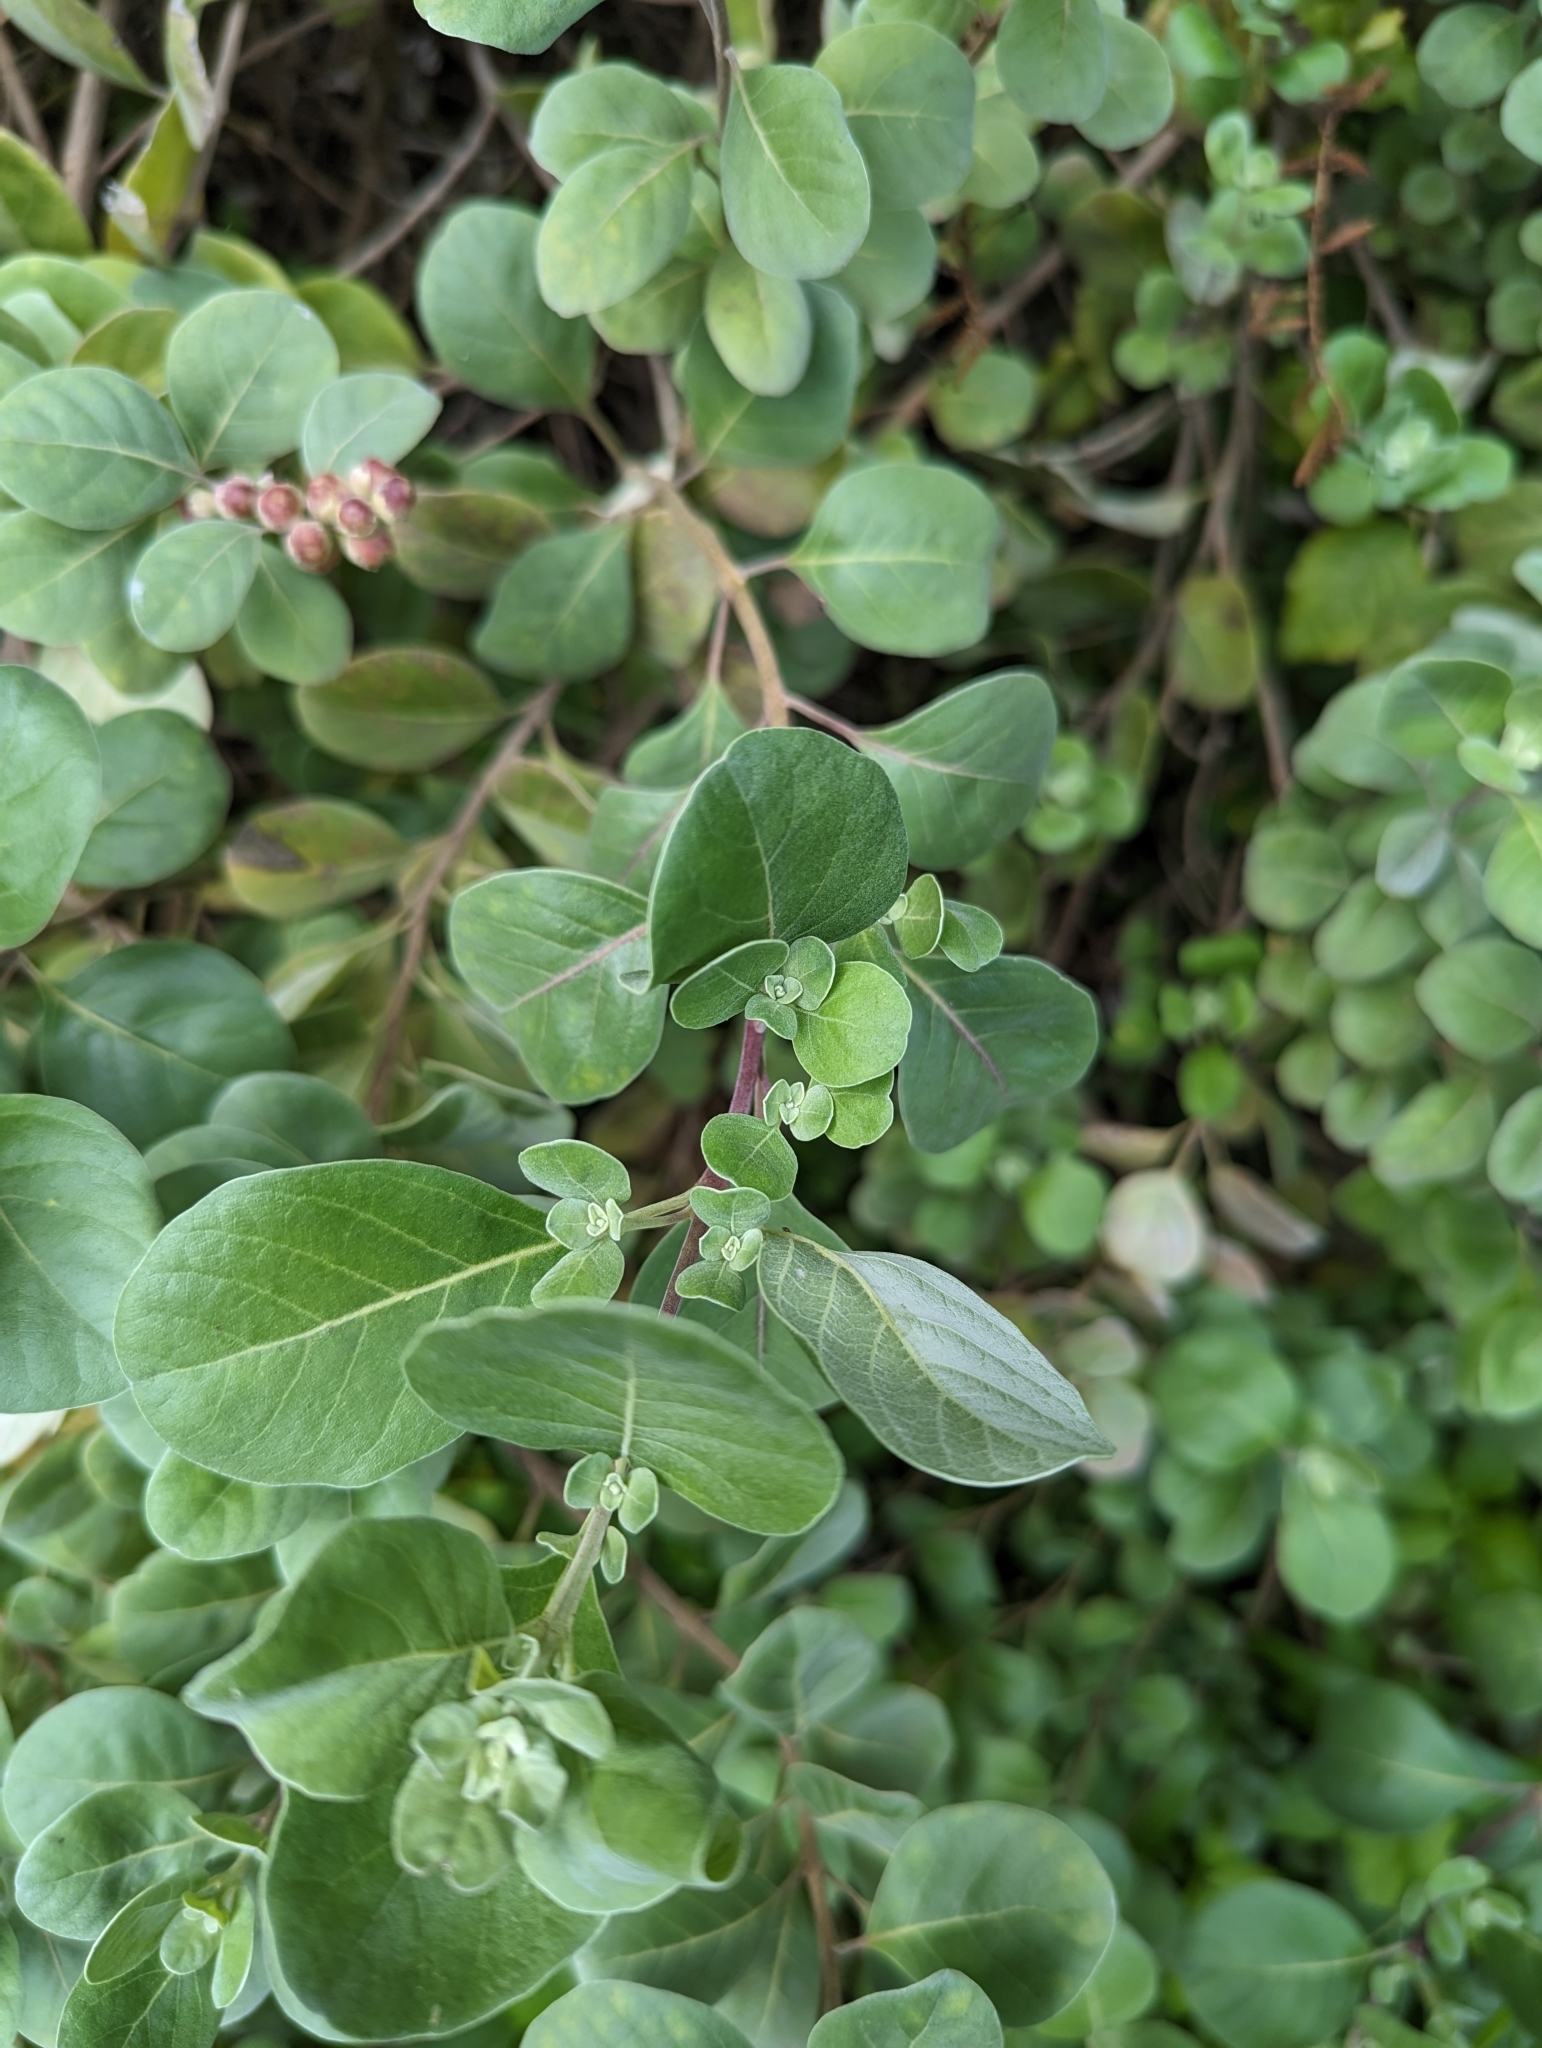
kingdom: Plantae
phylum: Tracheophyta
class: Magnoliopsida
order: Lamiales
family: Lamiaceae
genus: Vitex
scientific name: Vitex rotundifolia
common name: Beach vitex
